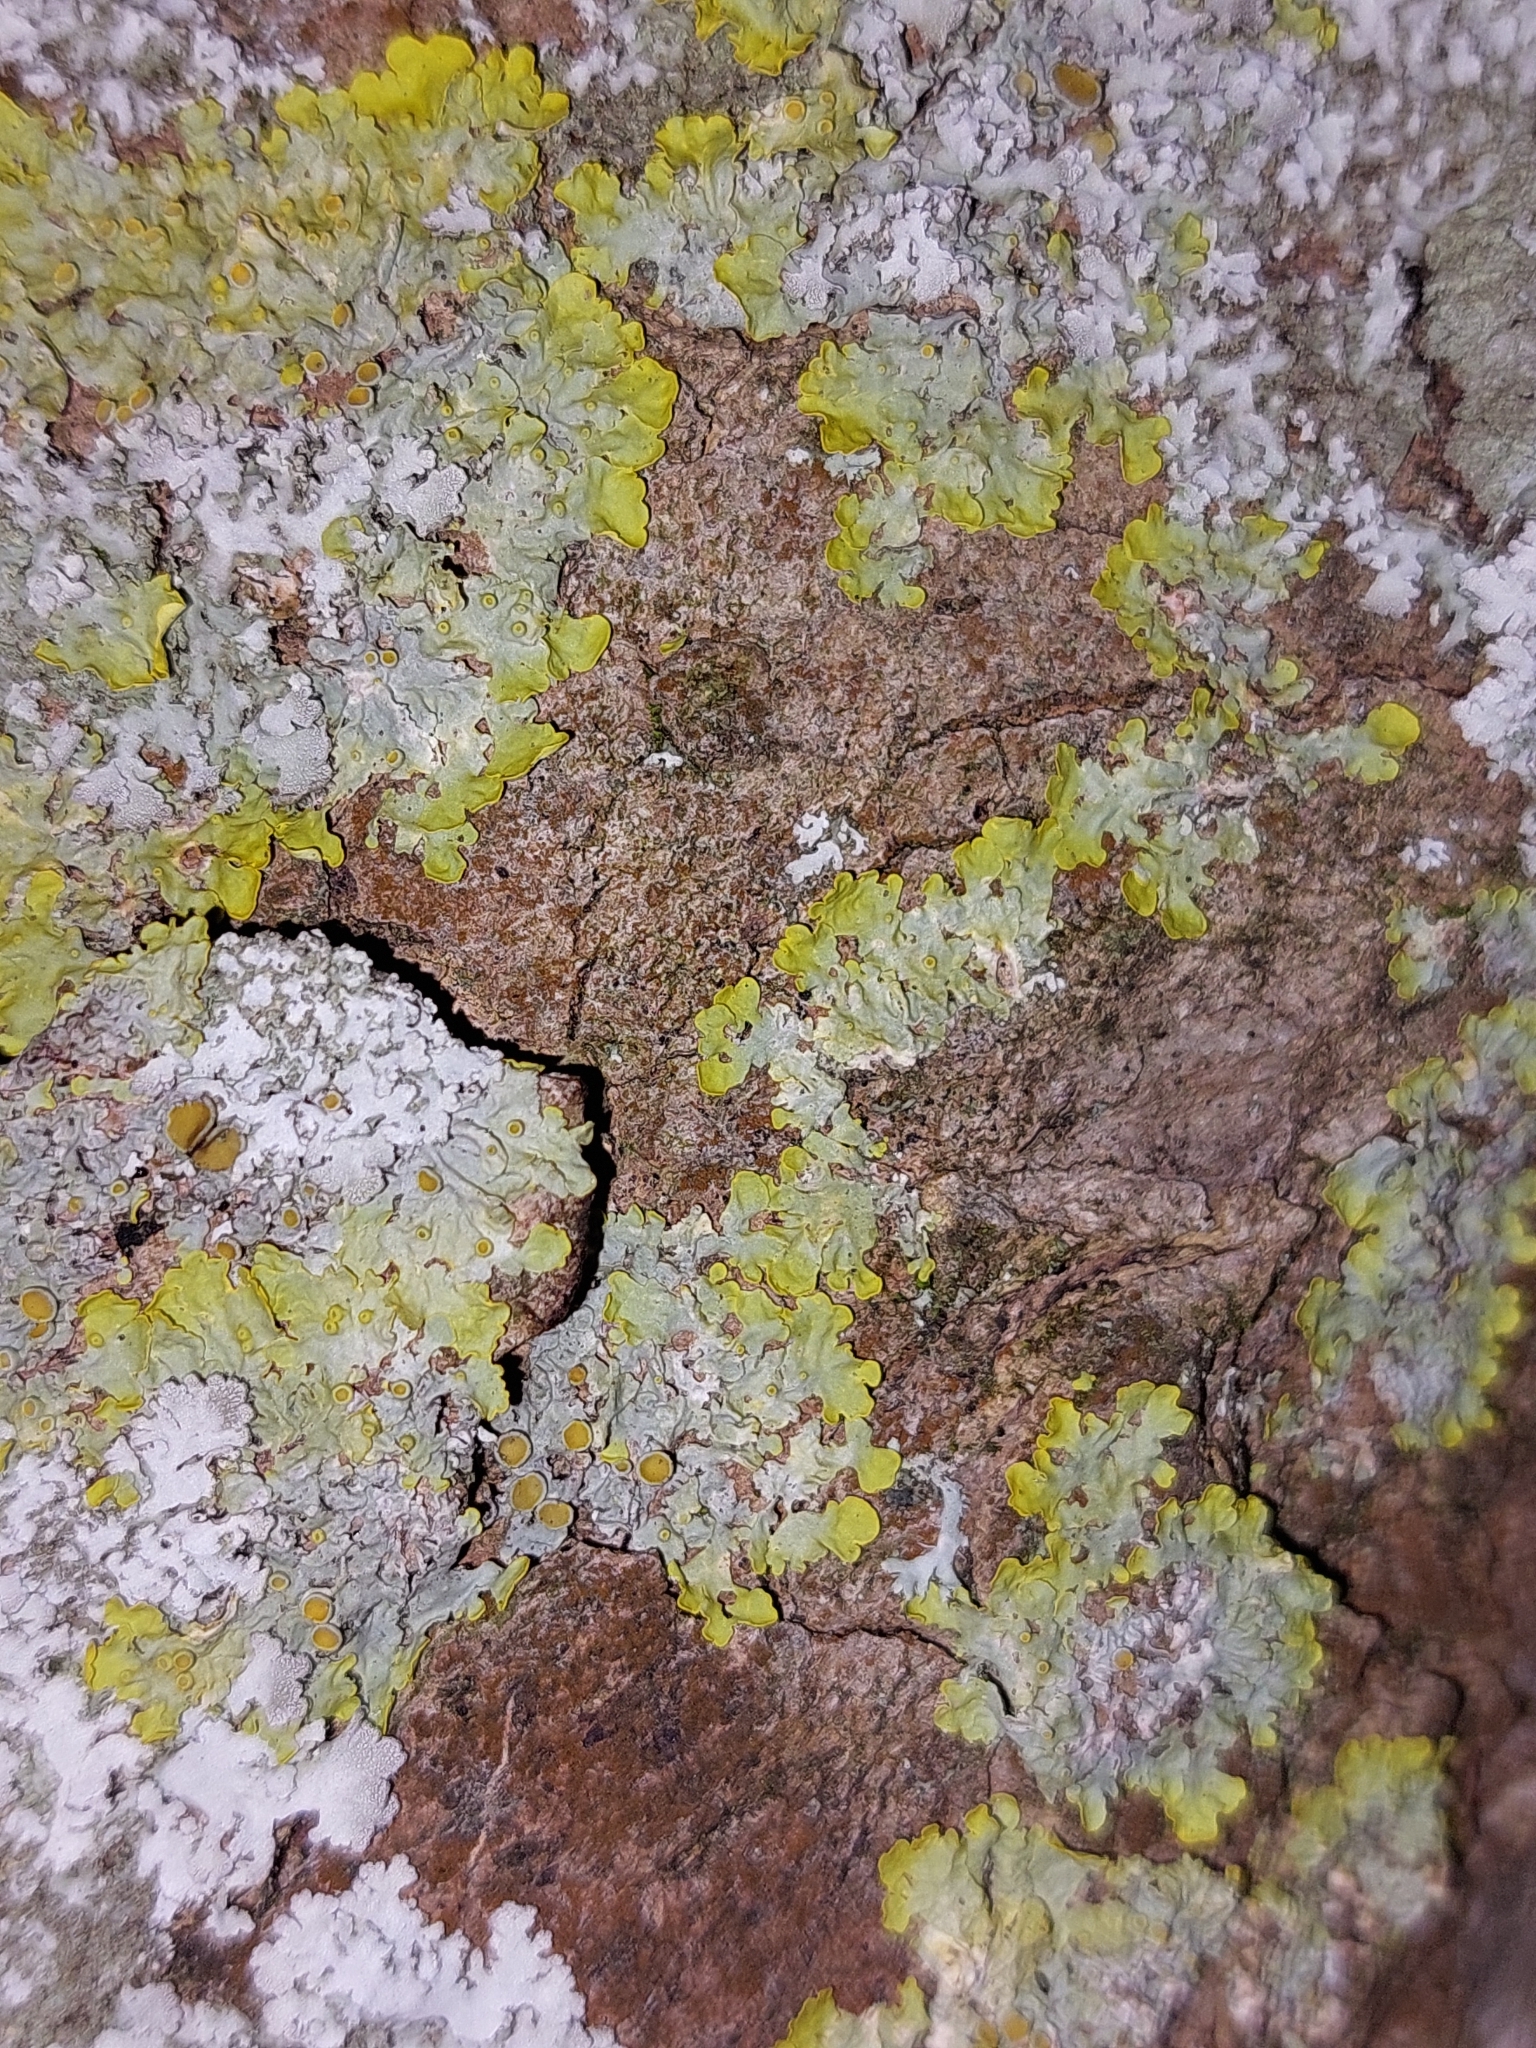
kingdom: Fungi
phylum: Ascomycota
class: Lecanoromycetes
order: Teloschistales
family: Teloschistaceae
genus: Xanthoria
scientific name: Xanthoria parietina
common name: Common orange lichen
